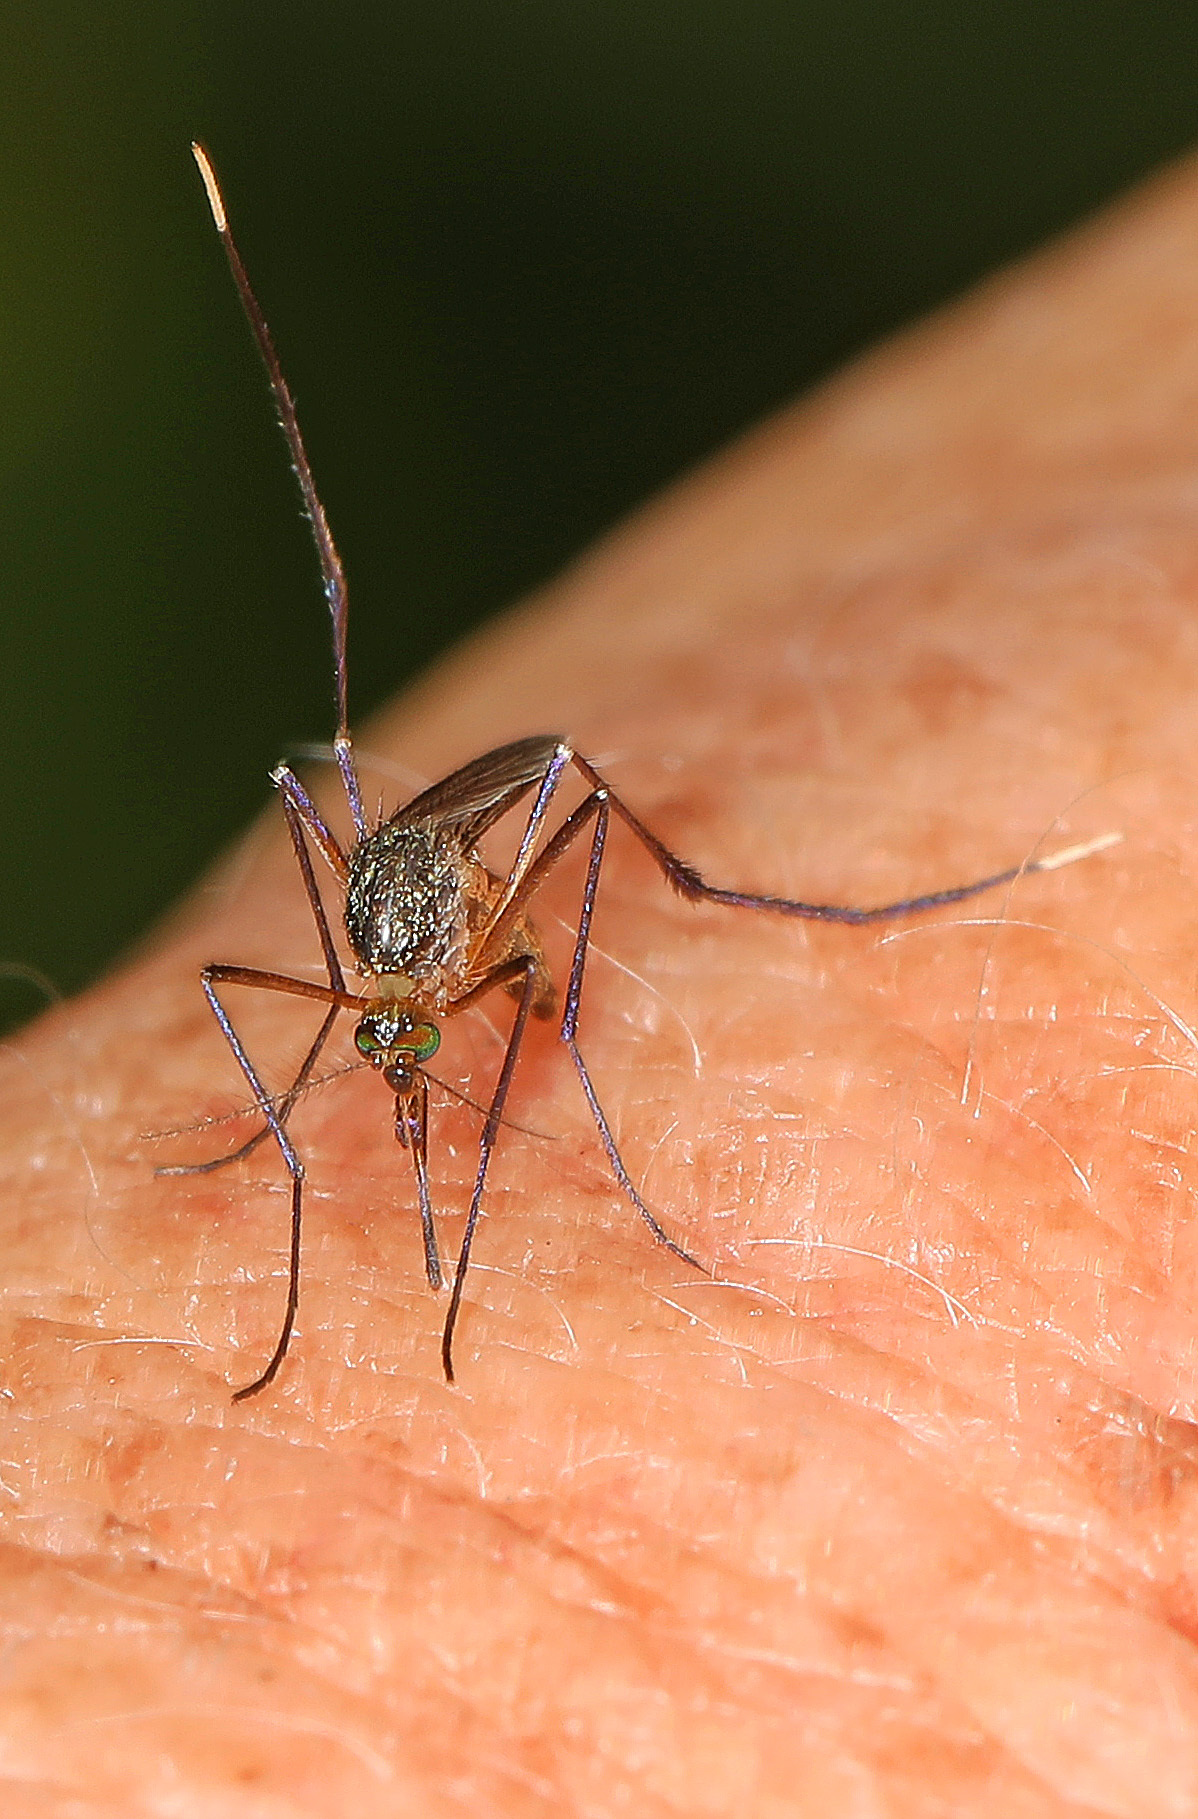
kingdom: Animalia
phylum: Arthropoda
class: Insecta
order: Diptera
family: Culicidae
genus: Psorophora
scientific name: Psorophora ferox
